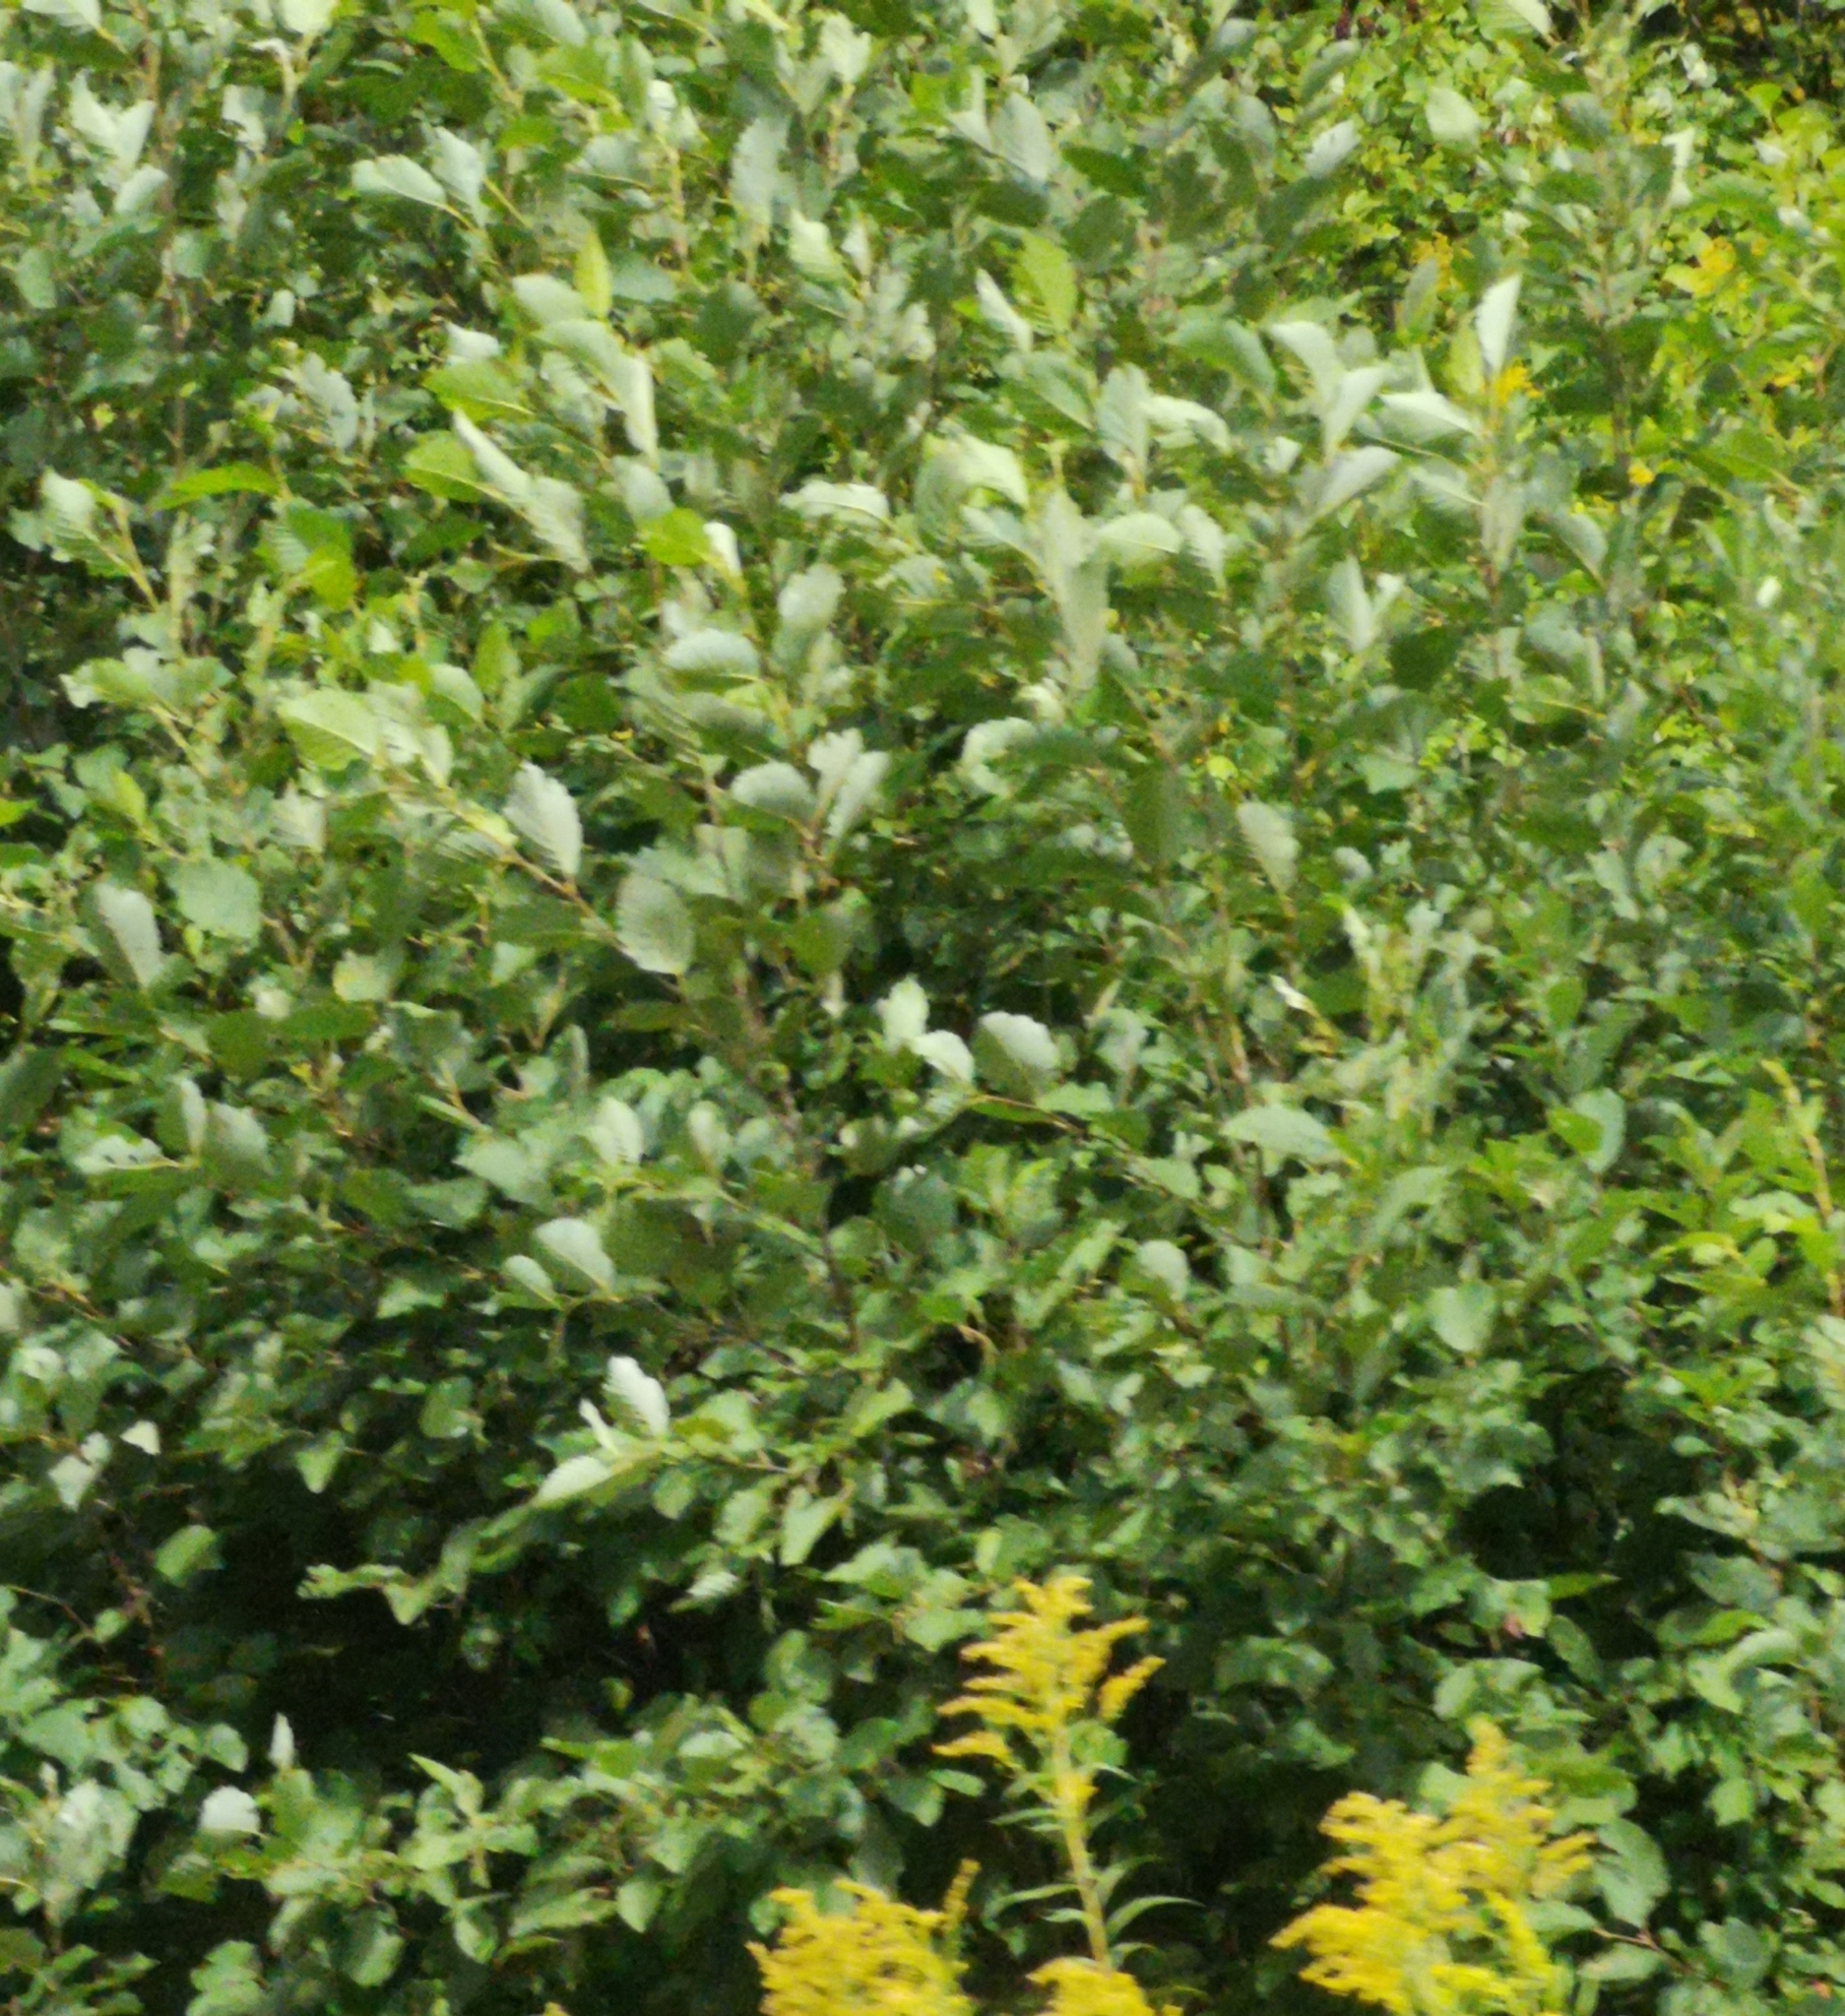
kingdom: Plantae
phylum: Tracheophyta
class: Magnoliopsida
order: Fagales
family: Betulaceae
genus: Alnus
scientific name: Alnus incana
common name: Grey alder
